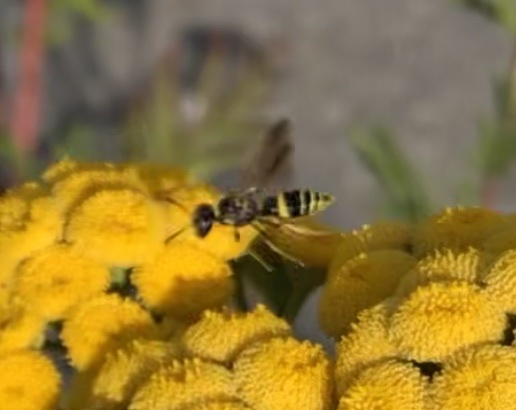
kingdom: Animalia
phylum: Arthropoda
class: Insecta
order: Hymenoptera
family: Crabronidae
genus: Philanthus
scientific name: Philanthus gibbosus
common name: Humped beewolf
